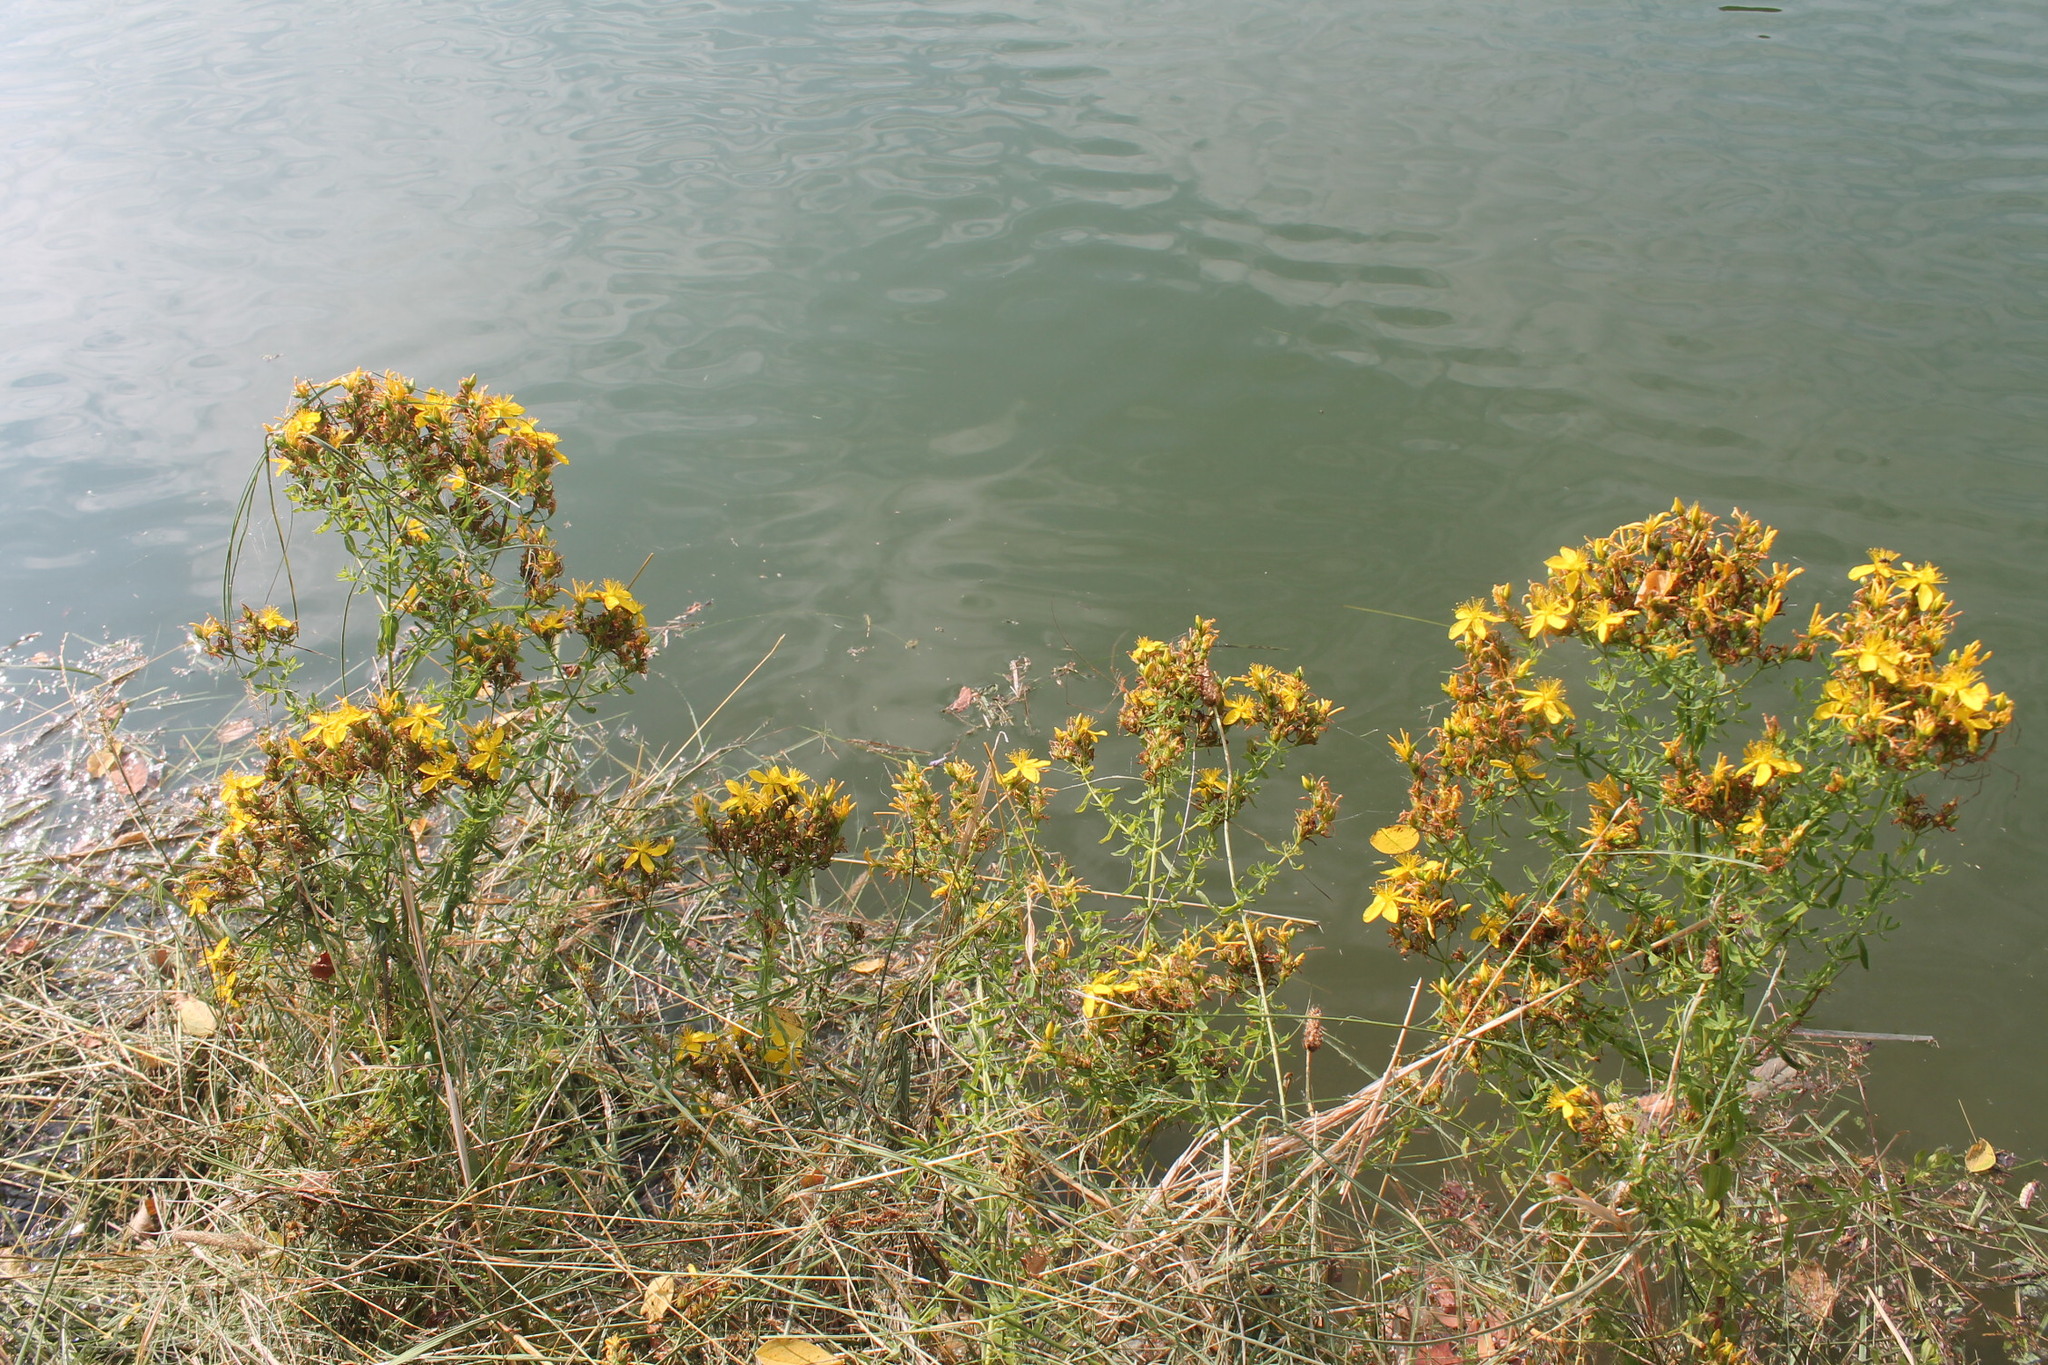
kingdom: Plantae
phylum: Tracheophyta
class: Magnoliopsida
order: Malpighiales
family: Hypericaceae
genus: Hypericum
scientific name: Hypericum perforatum
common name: Common st. johnswort
